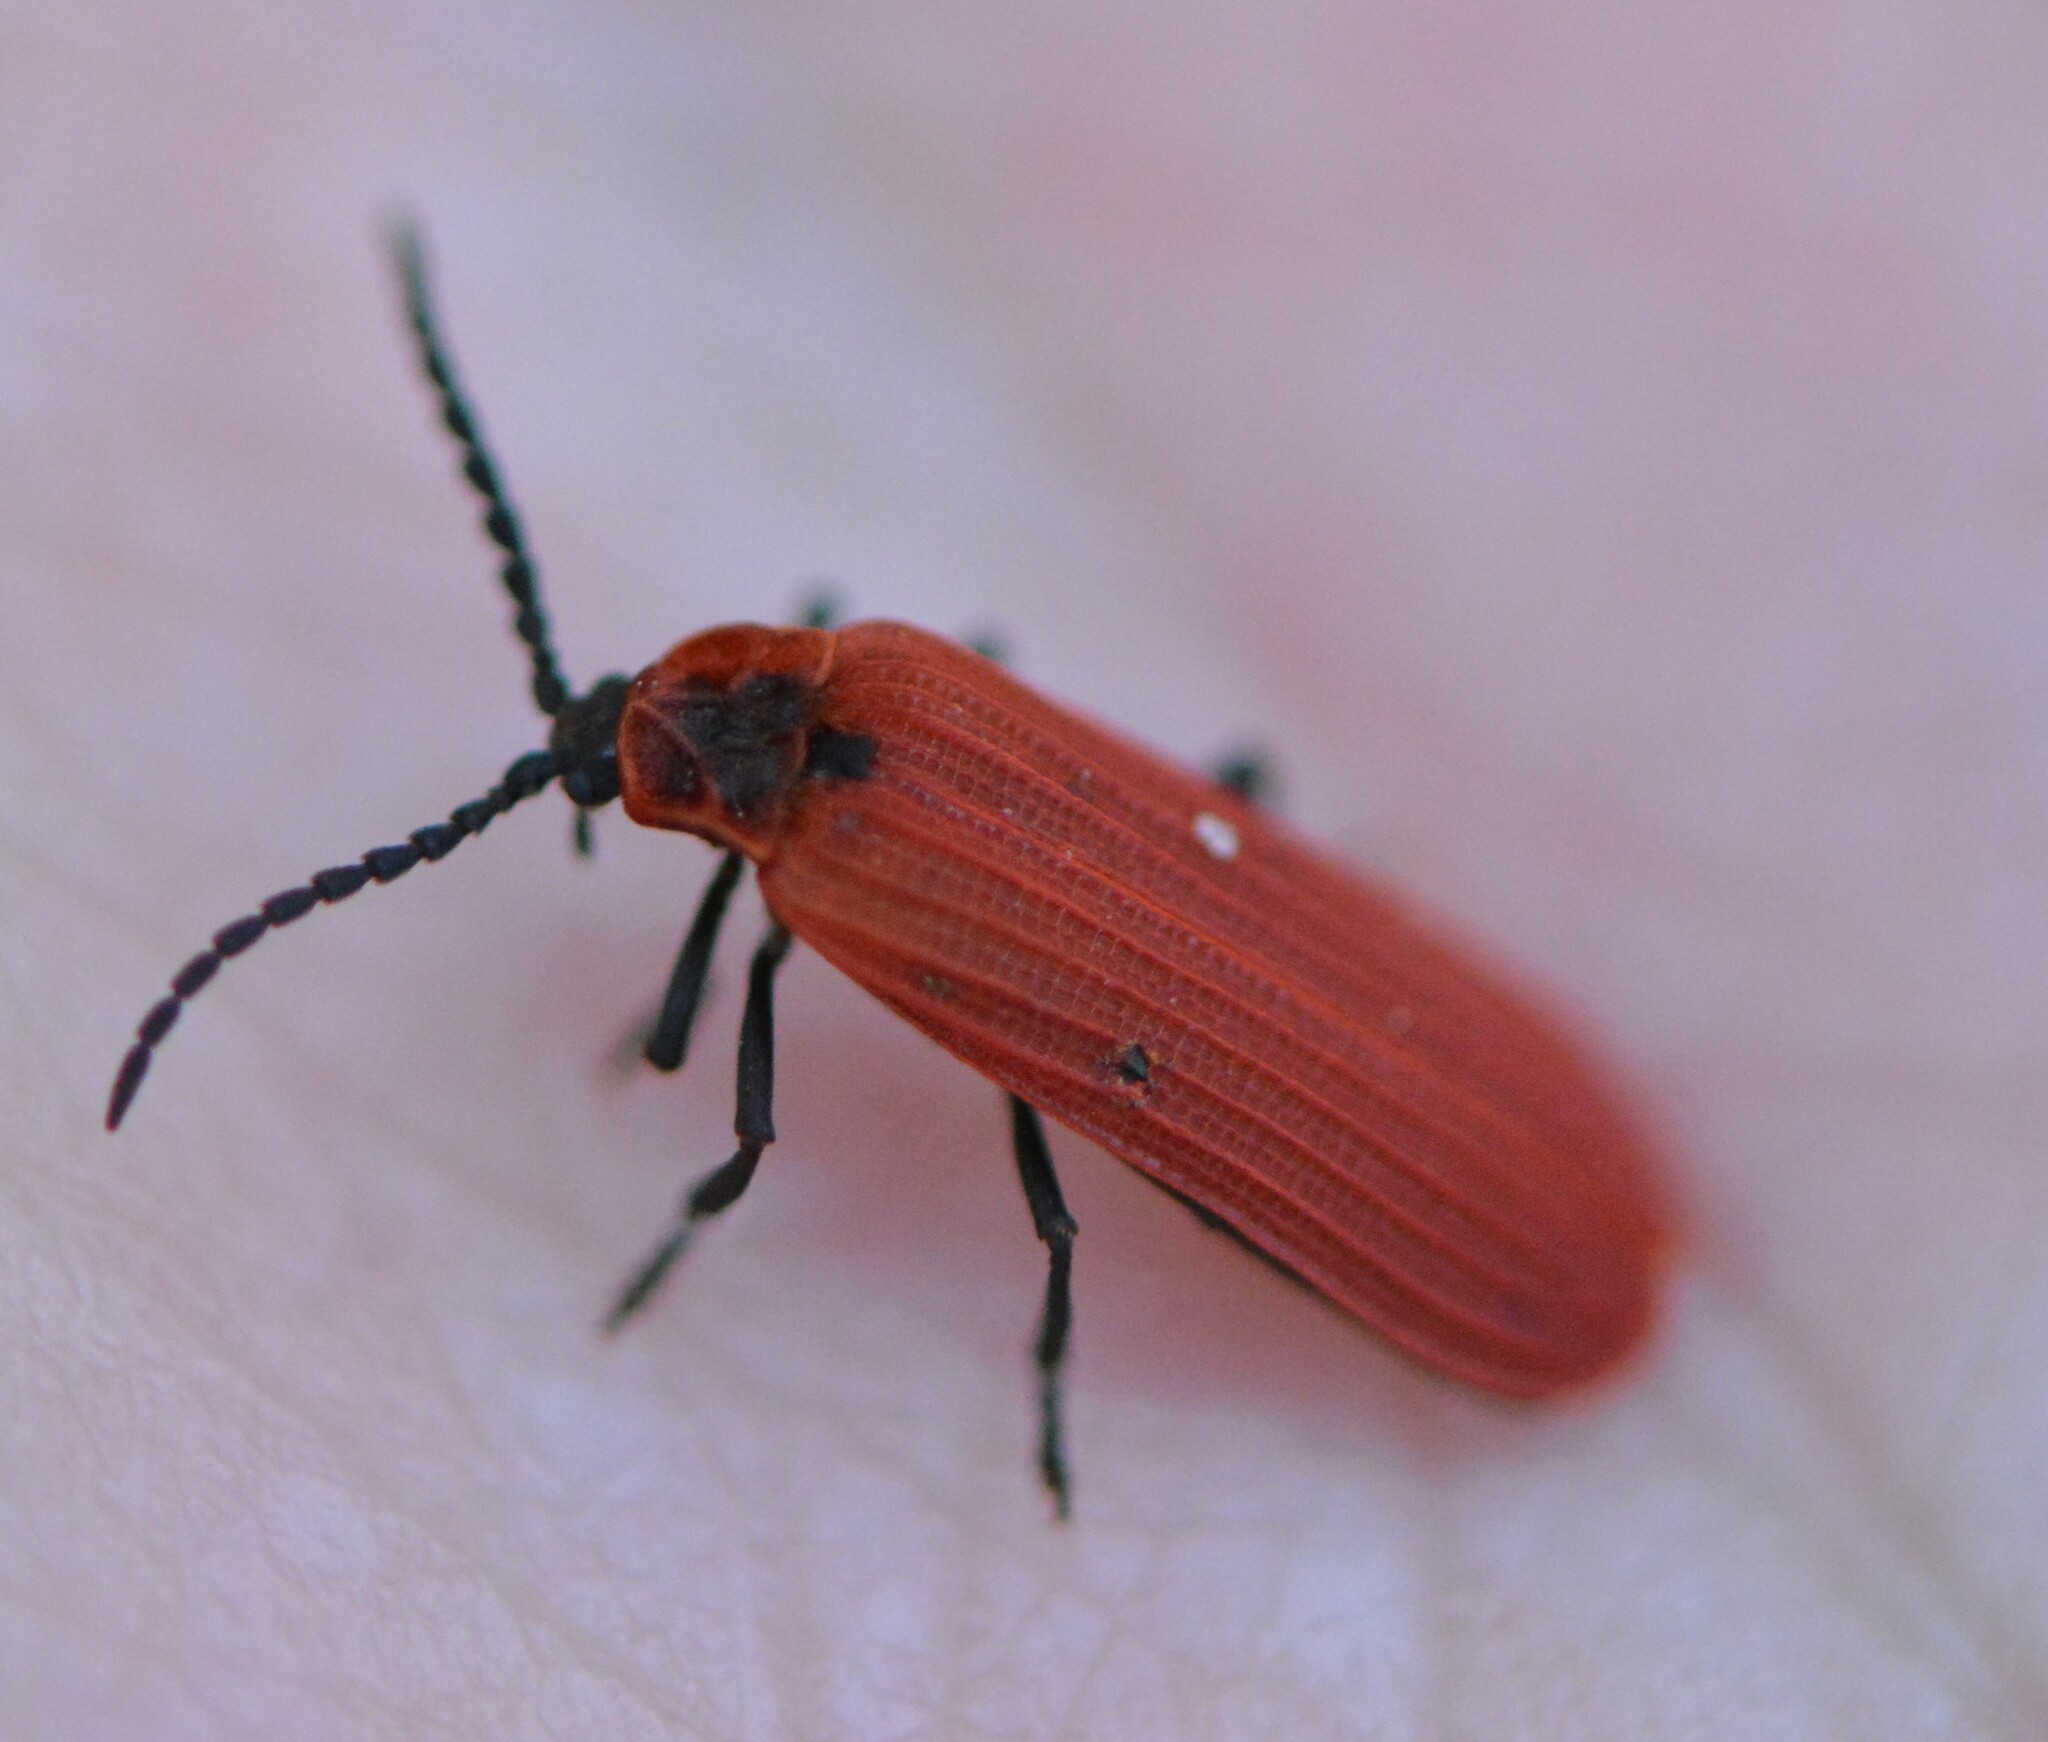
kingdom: Animalia
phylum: Arthropoda
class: Insecta
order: Coleoptera
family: Lycidae
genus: Dictyoptera
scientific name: Dictyoptera aurora
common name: Golden net-winged beetle
